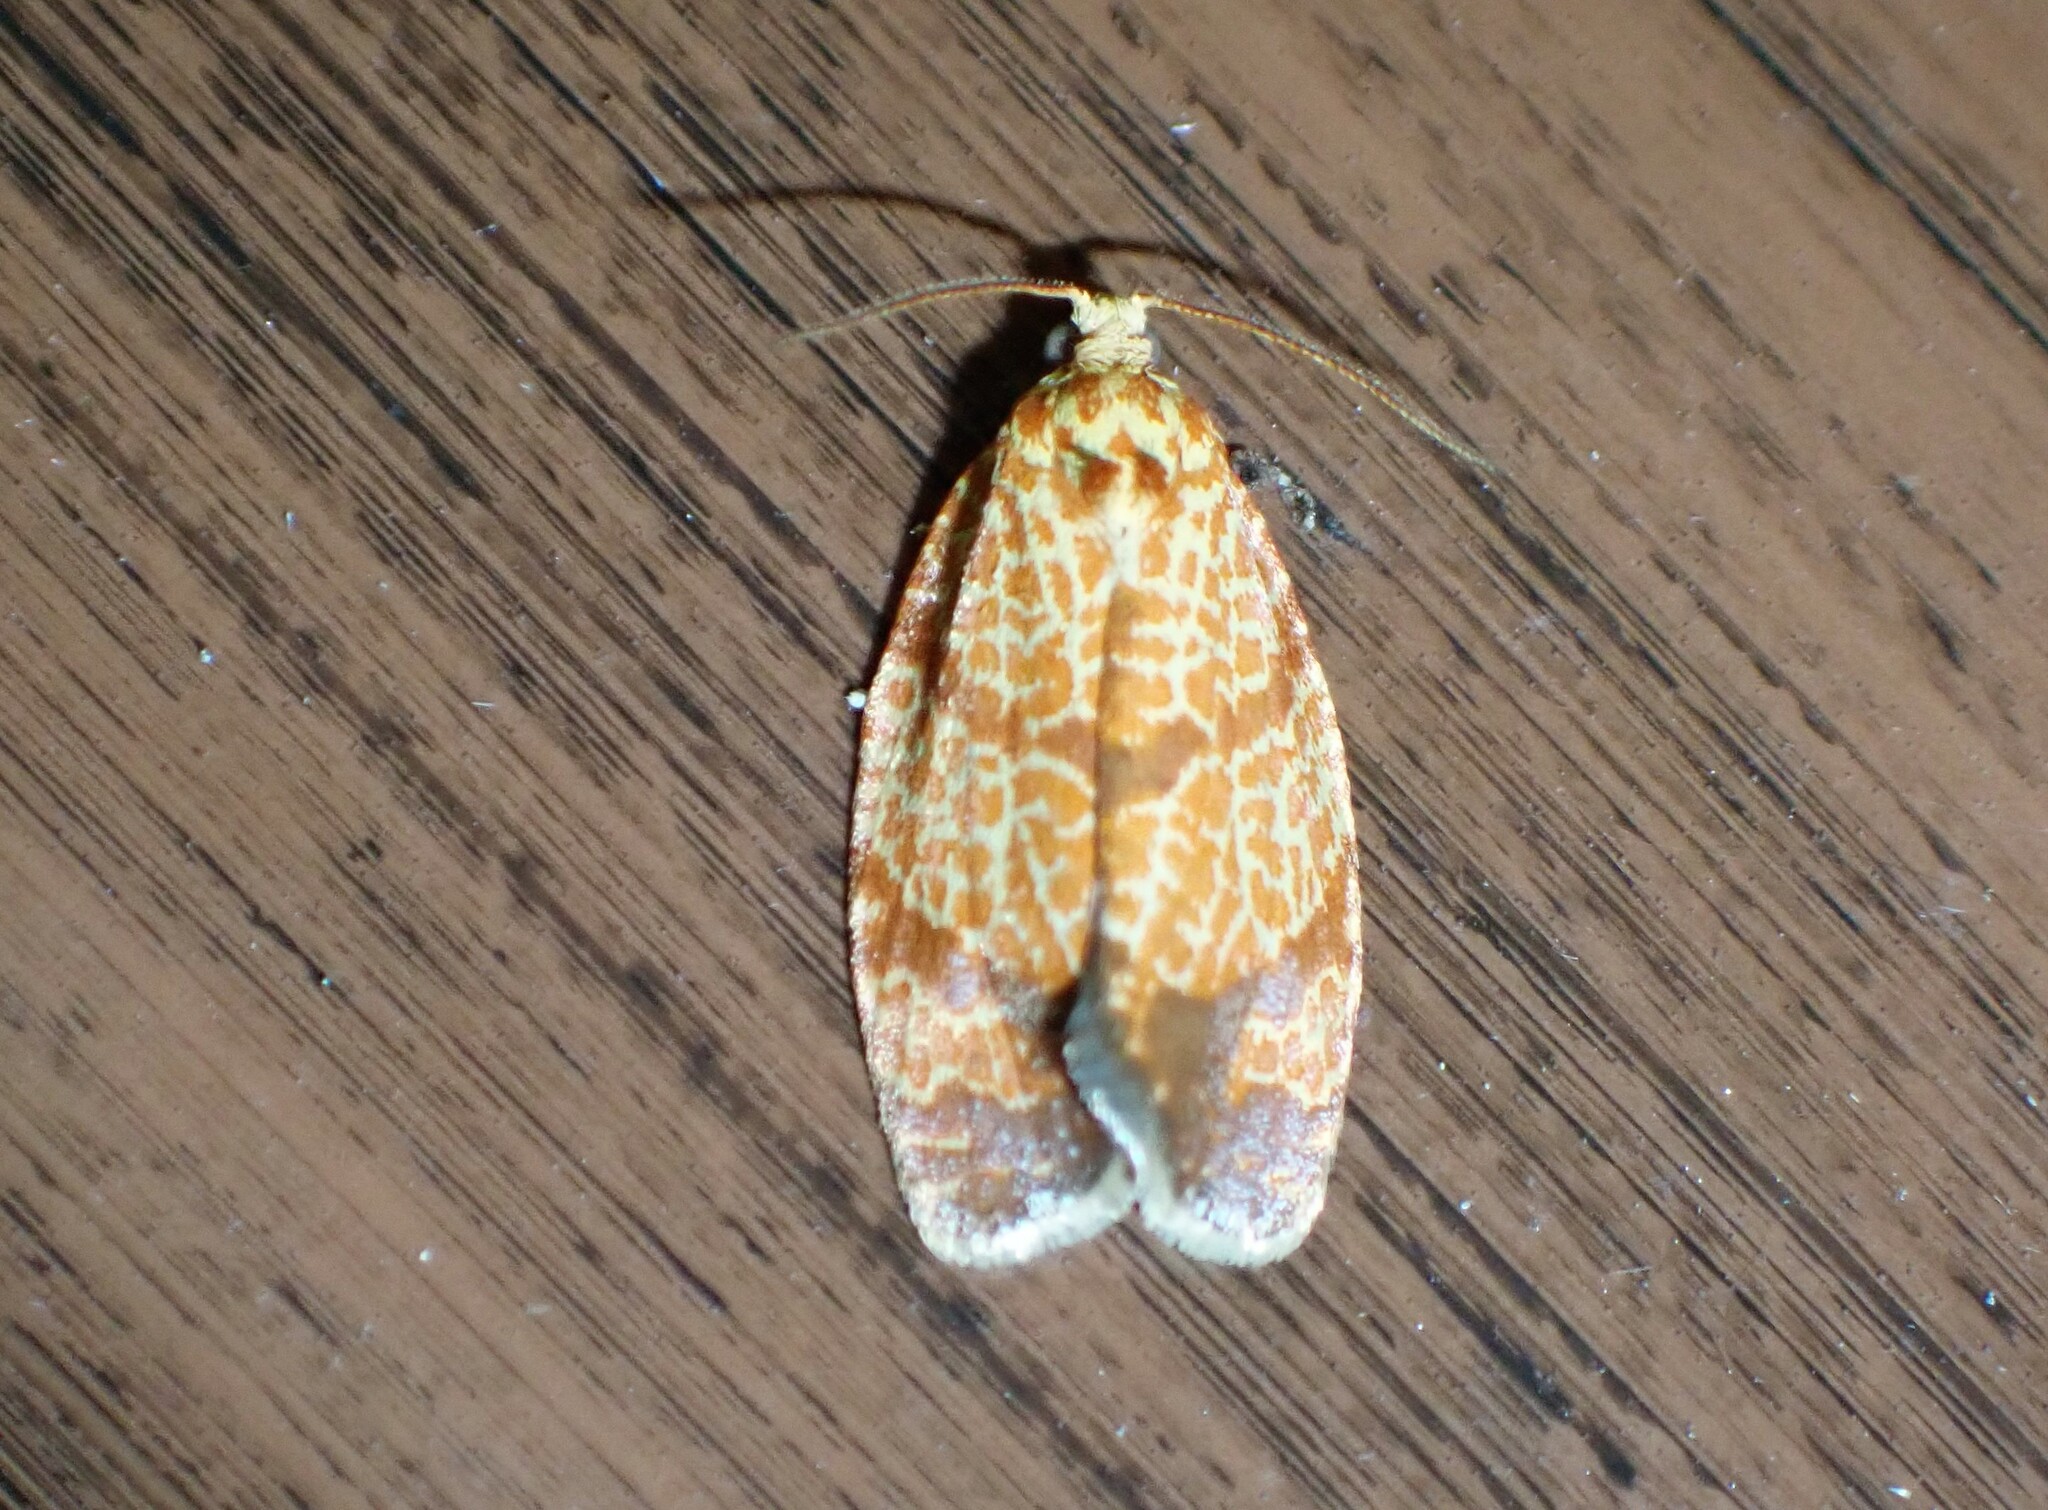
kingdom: Animalia
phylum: Arthropoda
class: Insecta
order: Lepidoptera
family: Tortricidae
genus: Argyrotaenia
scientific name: Argyrotaenia quadrifasciana
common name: Four-lined leafroller moth
